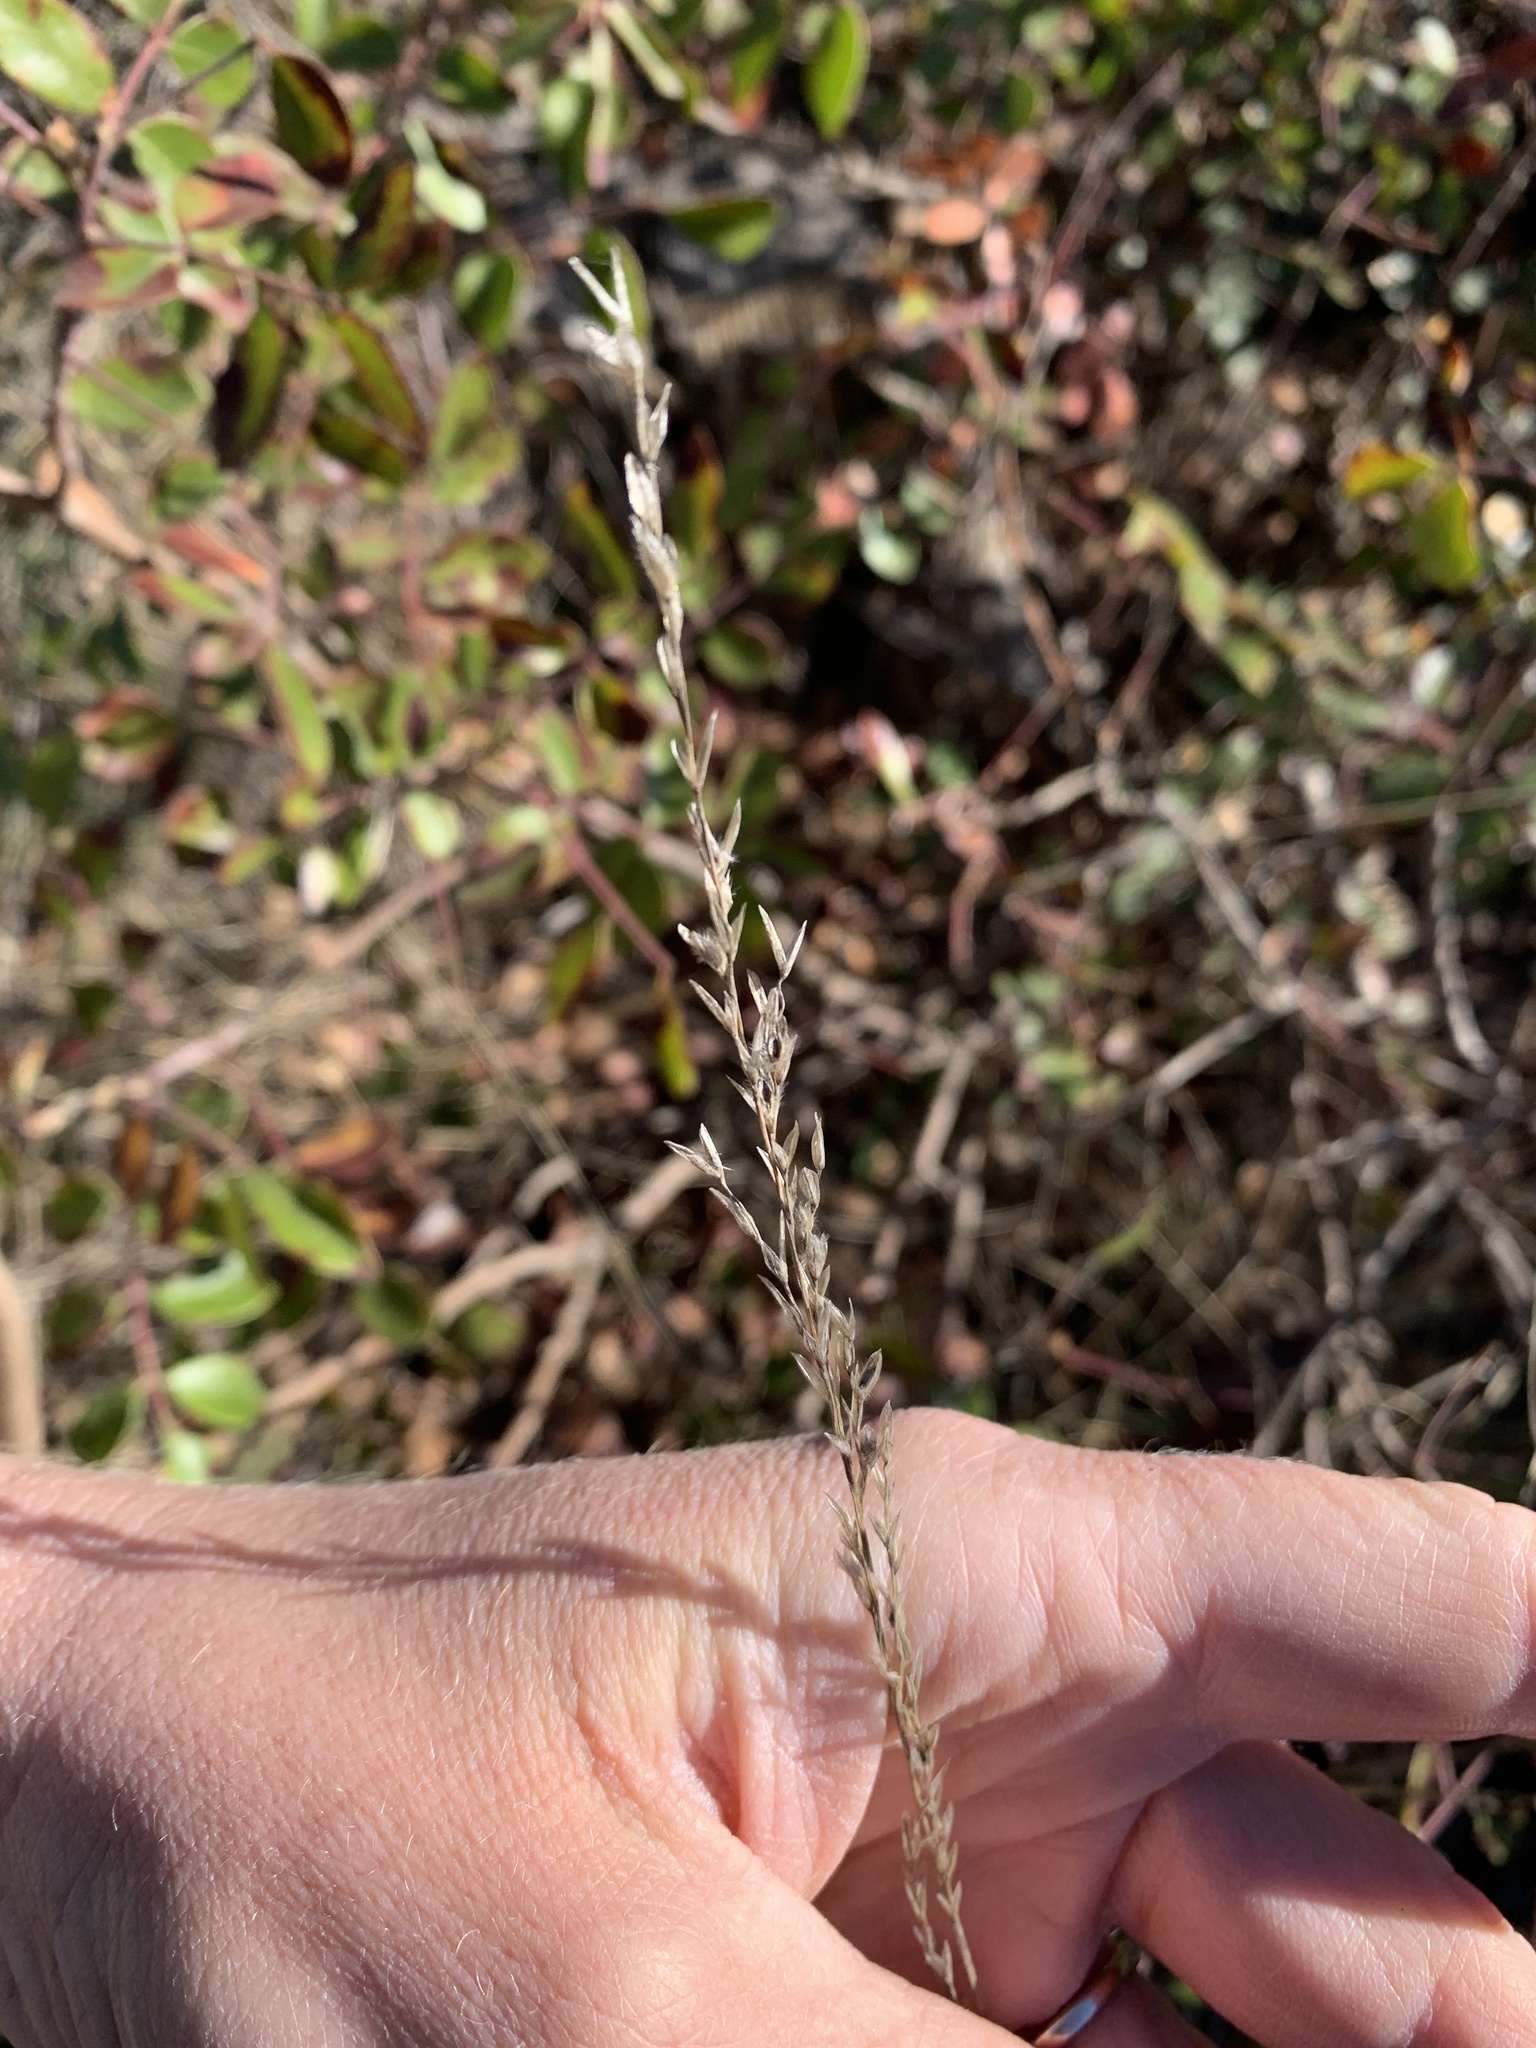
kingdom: Plantae
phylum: Tracheophyta
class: Liliopsida
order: Poales
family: Poaceae
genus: Tridentopsis
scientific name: Tridentopsis mutica
